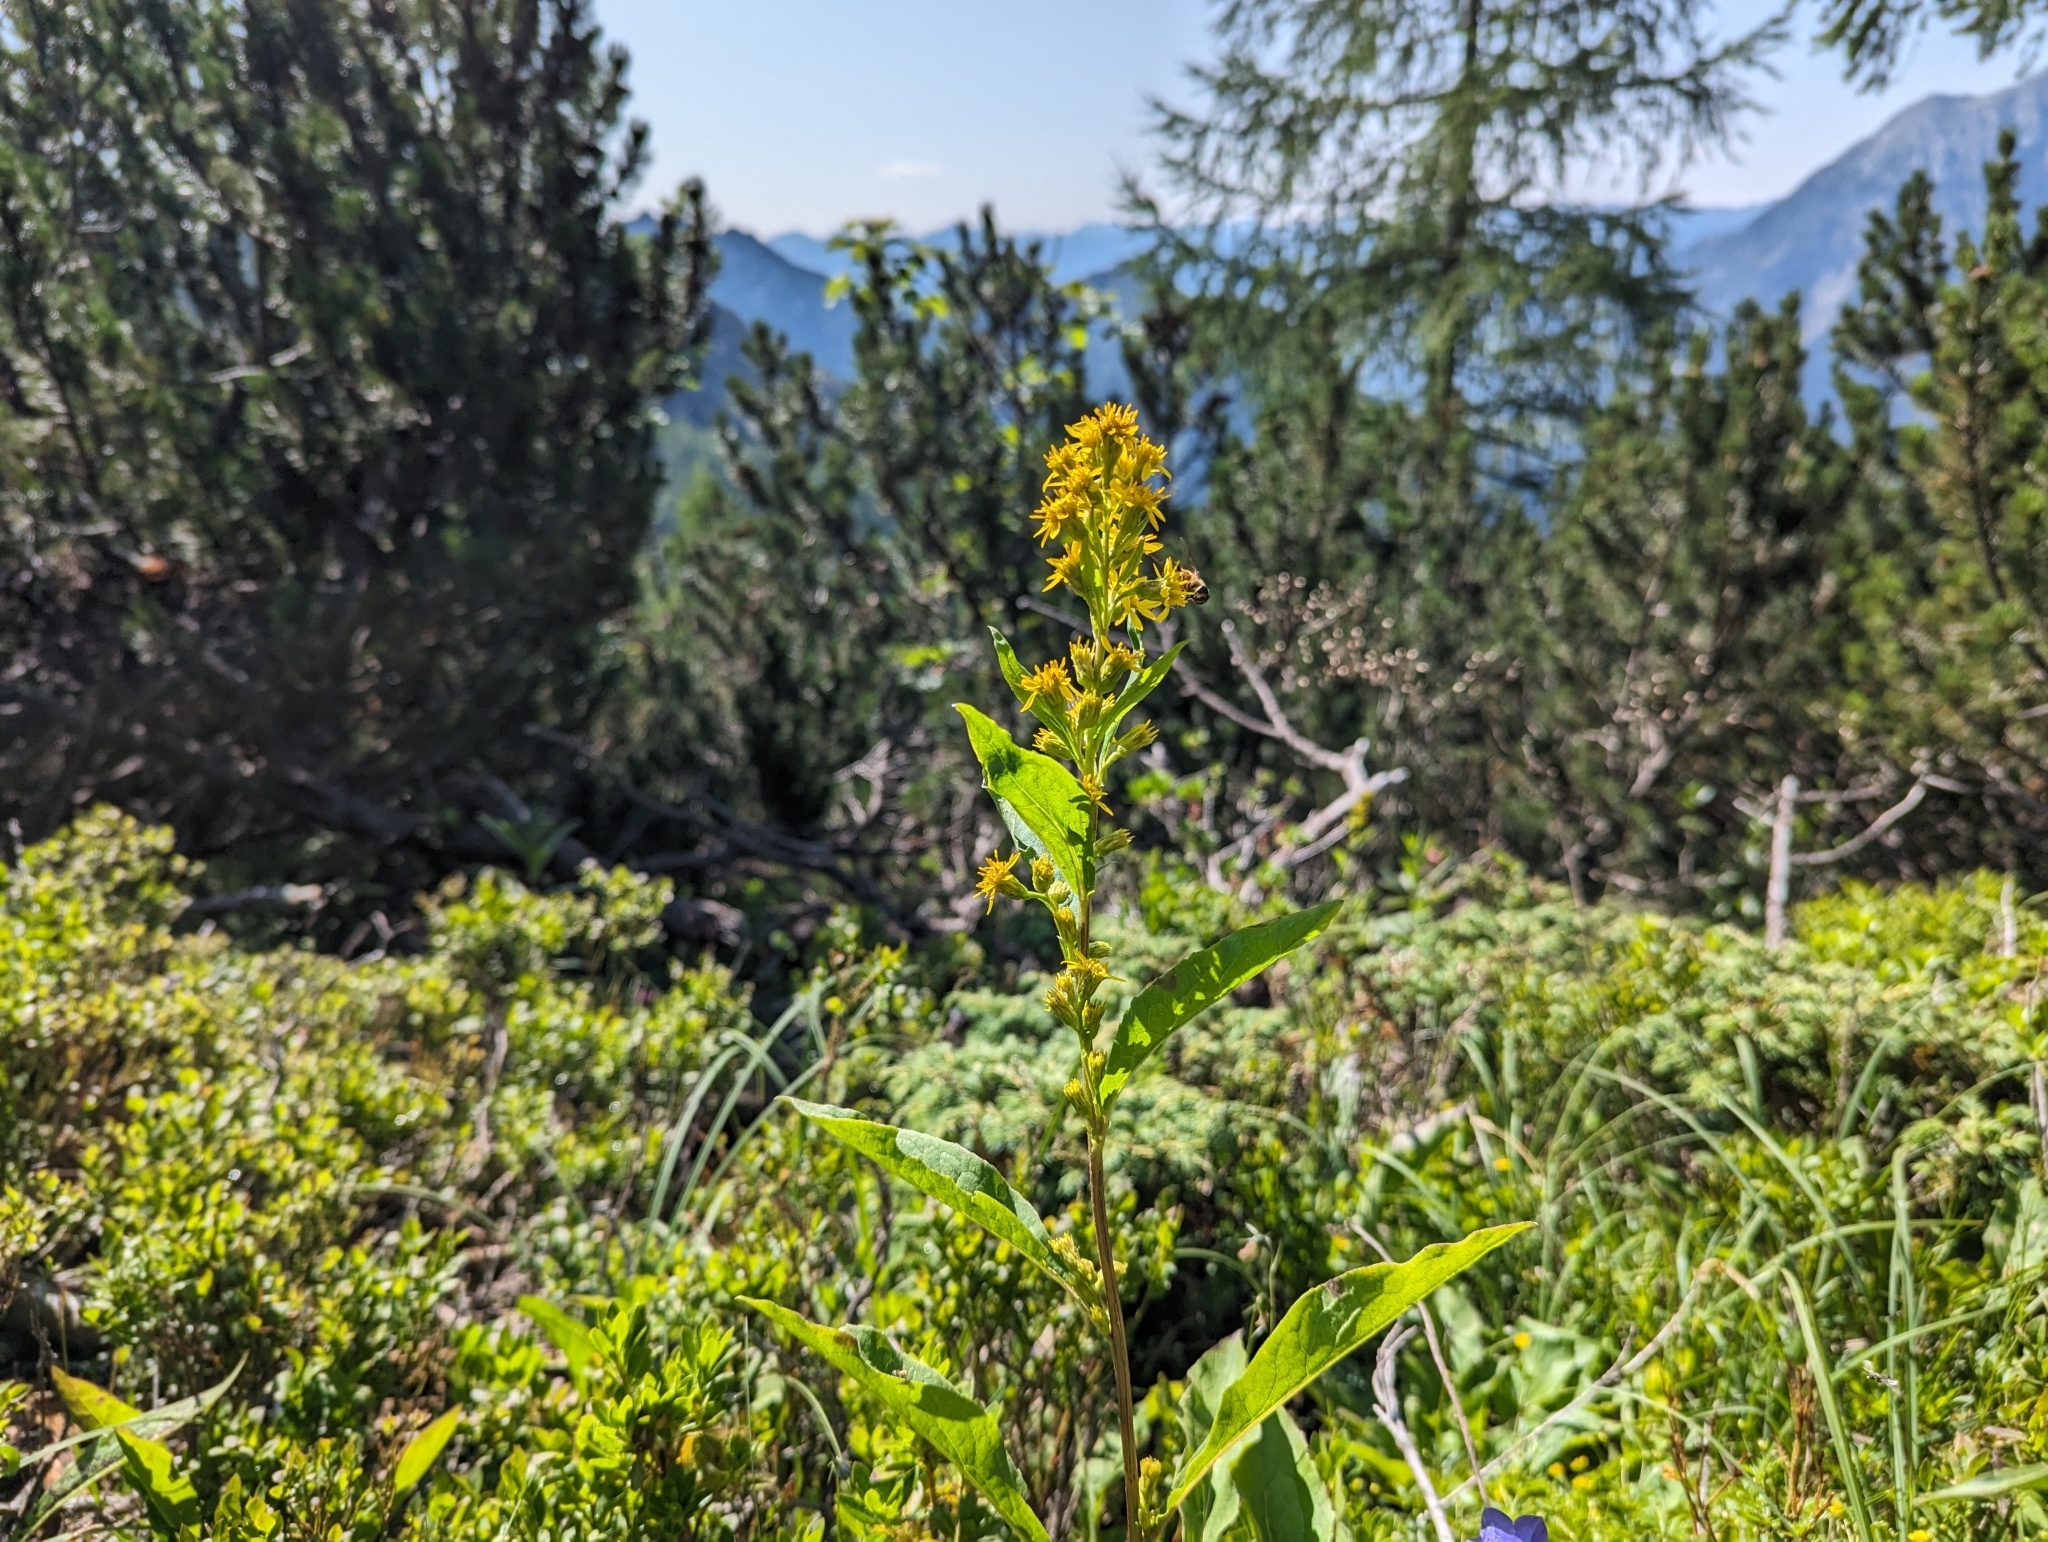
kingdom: Plantae
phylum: Tracheophyta
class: Magnoliopsida
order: Asterales
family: Asteraceae
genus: Solidago
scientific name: Solidago virgaurea
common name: Goldenrod
